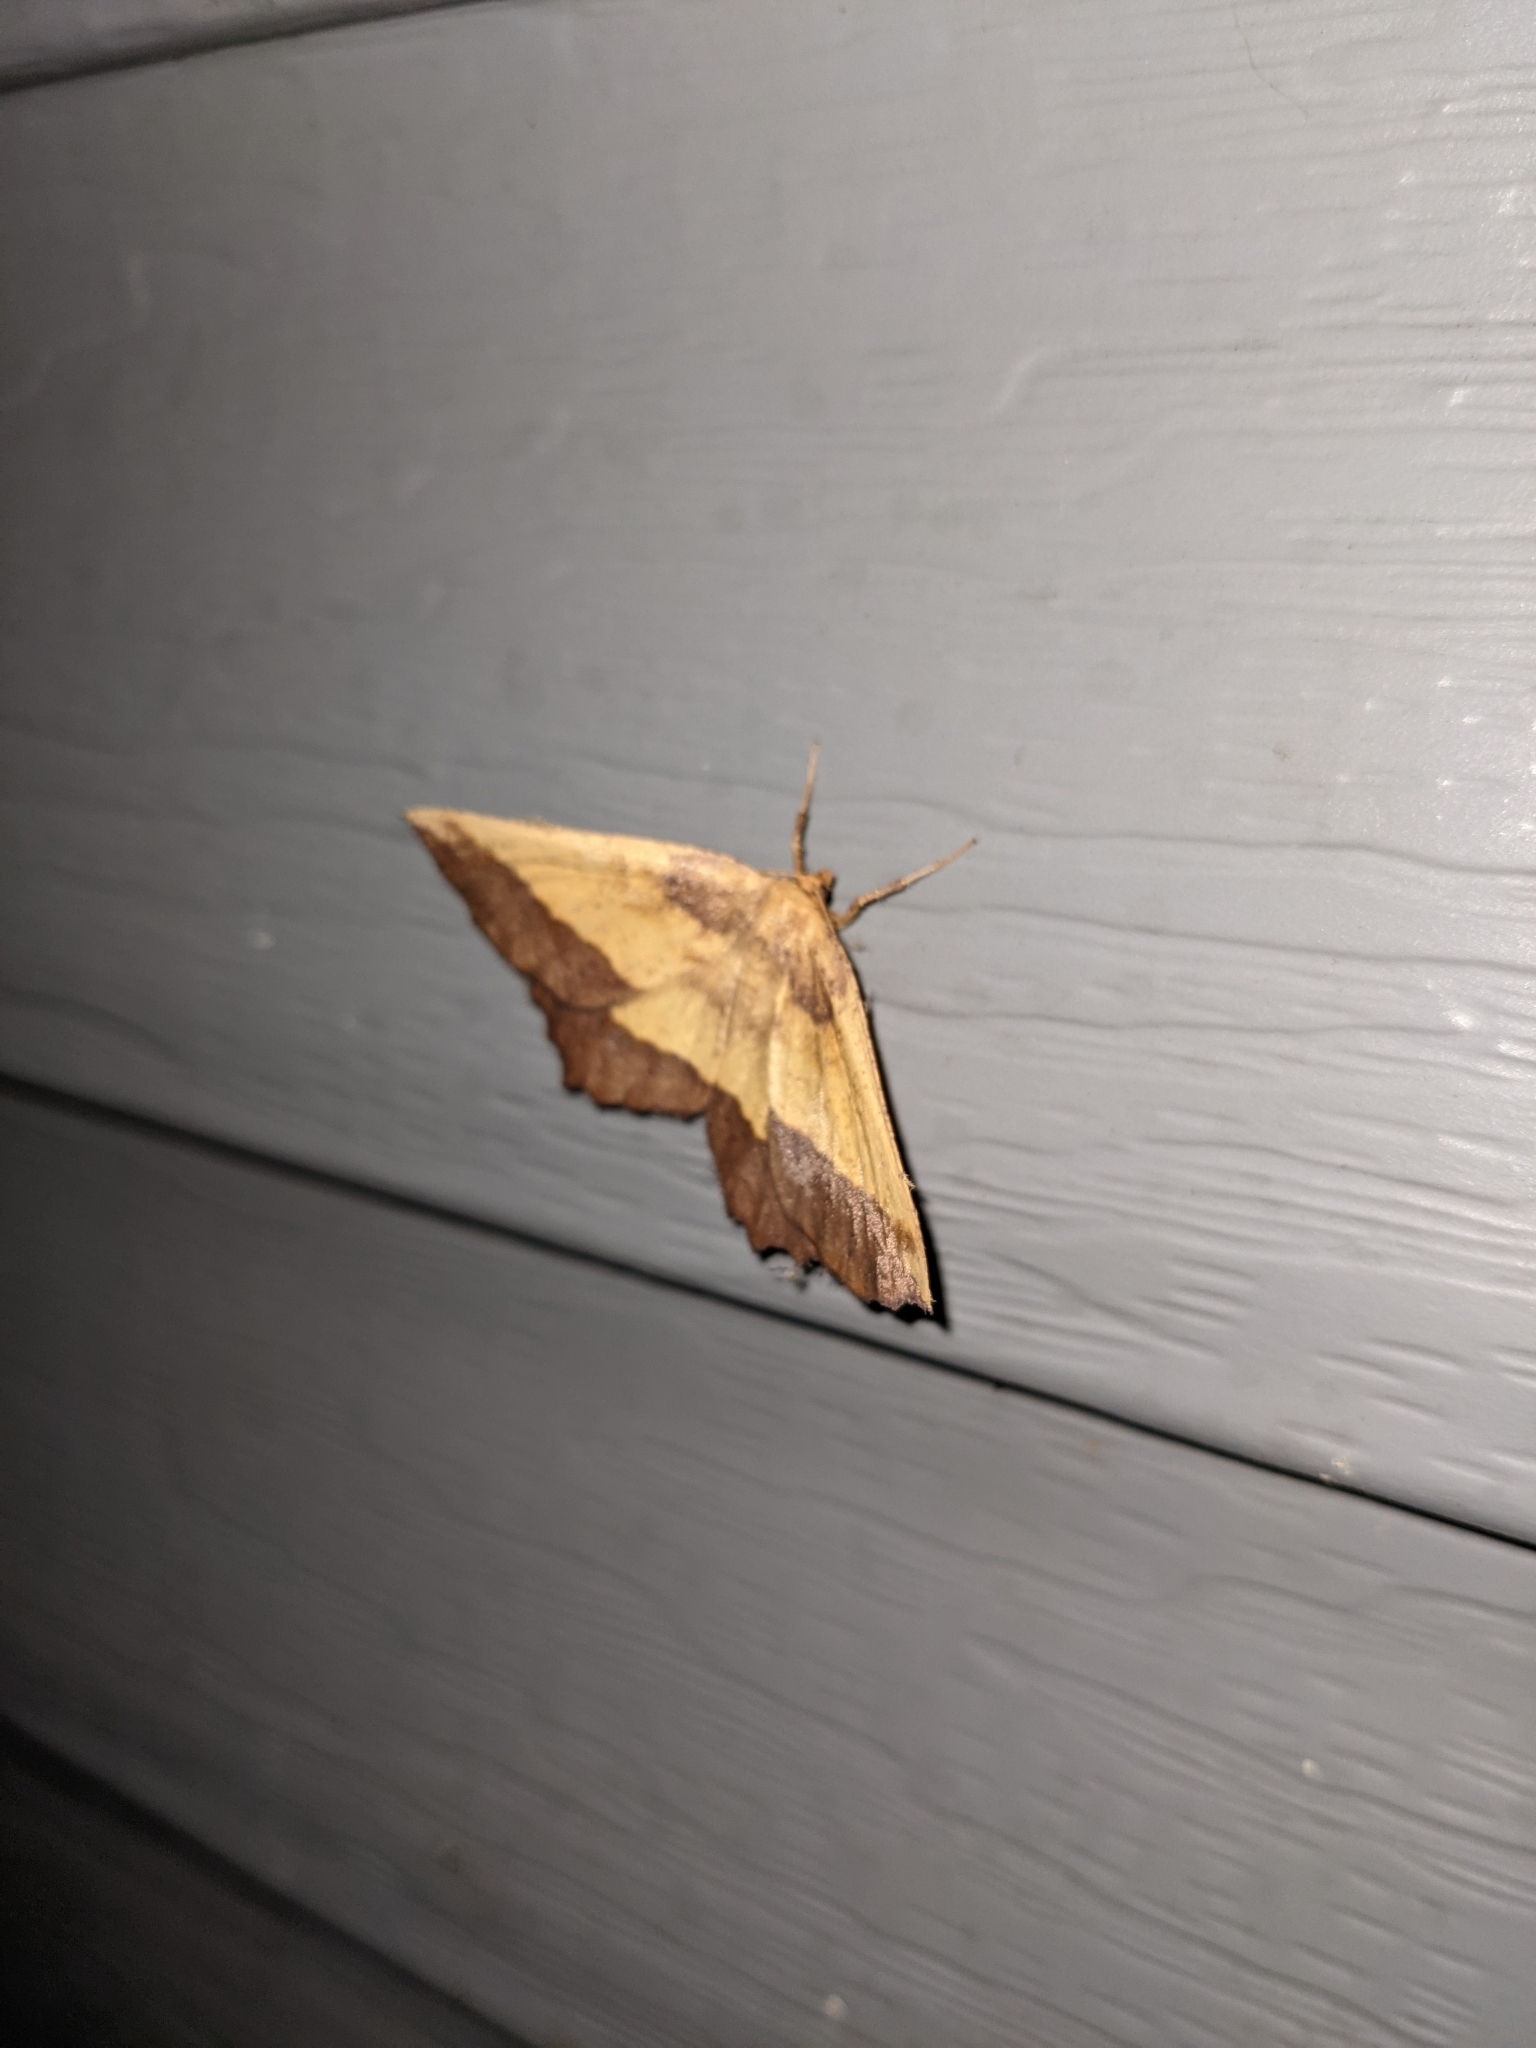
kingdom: Animalia
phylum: Arthropoda
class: Insecta
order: Lepidoptera
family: Geometridae
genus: Euchlaena
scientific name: Euchlaena serrata
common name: Saw wing
